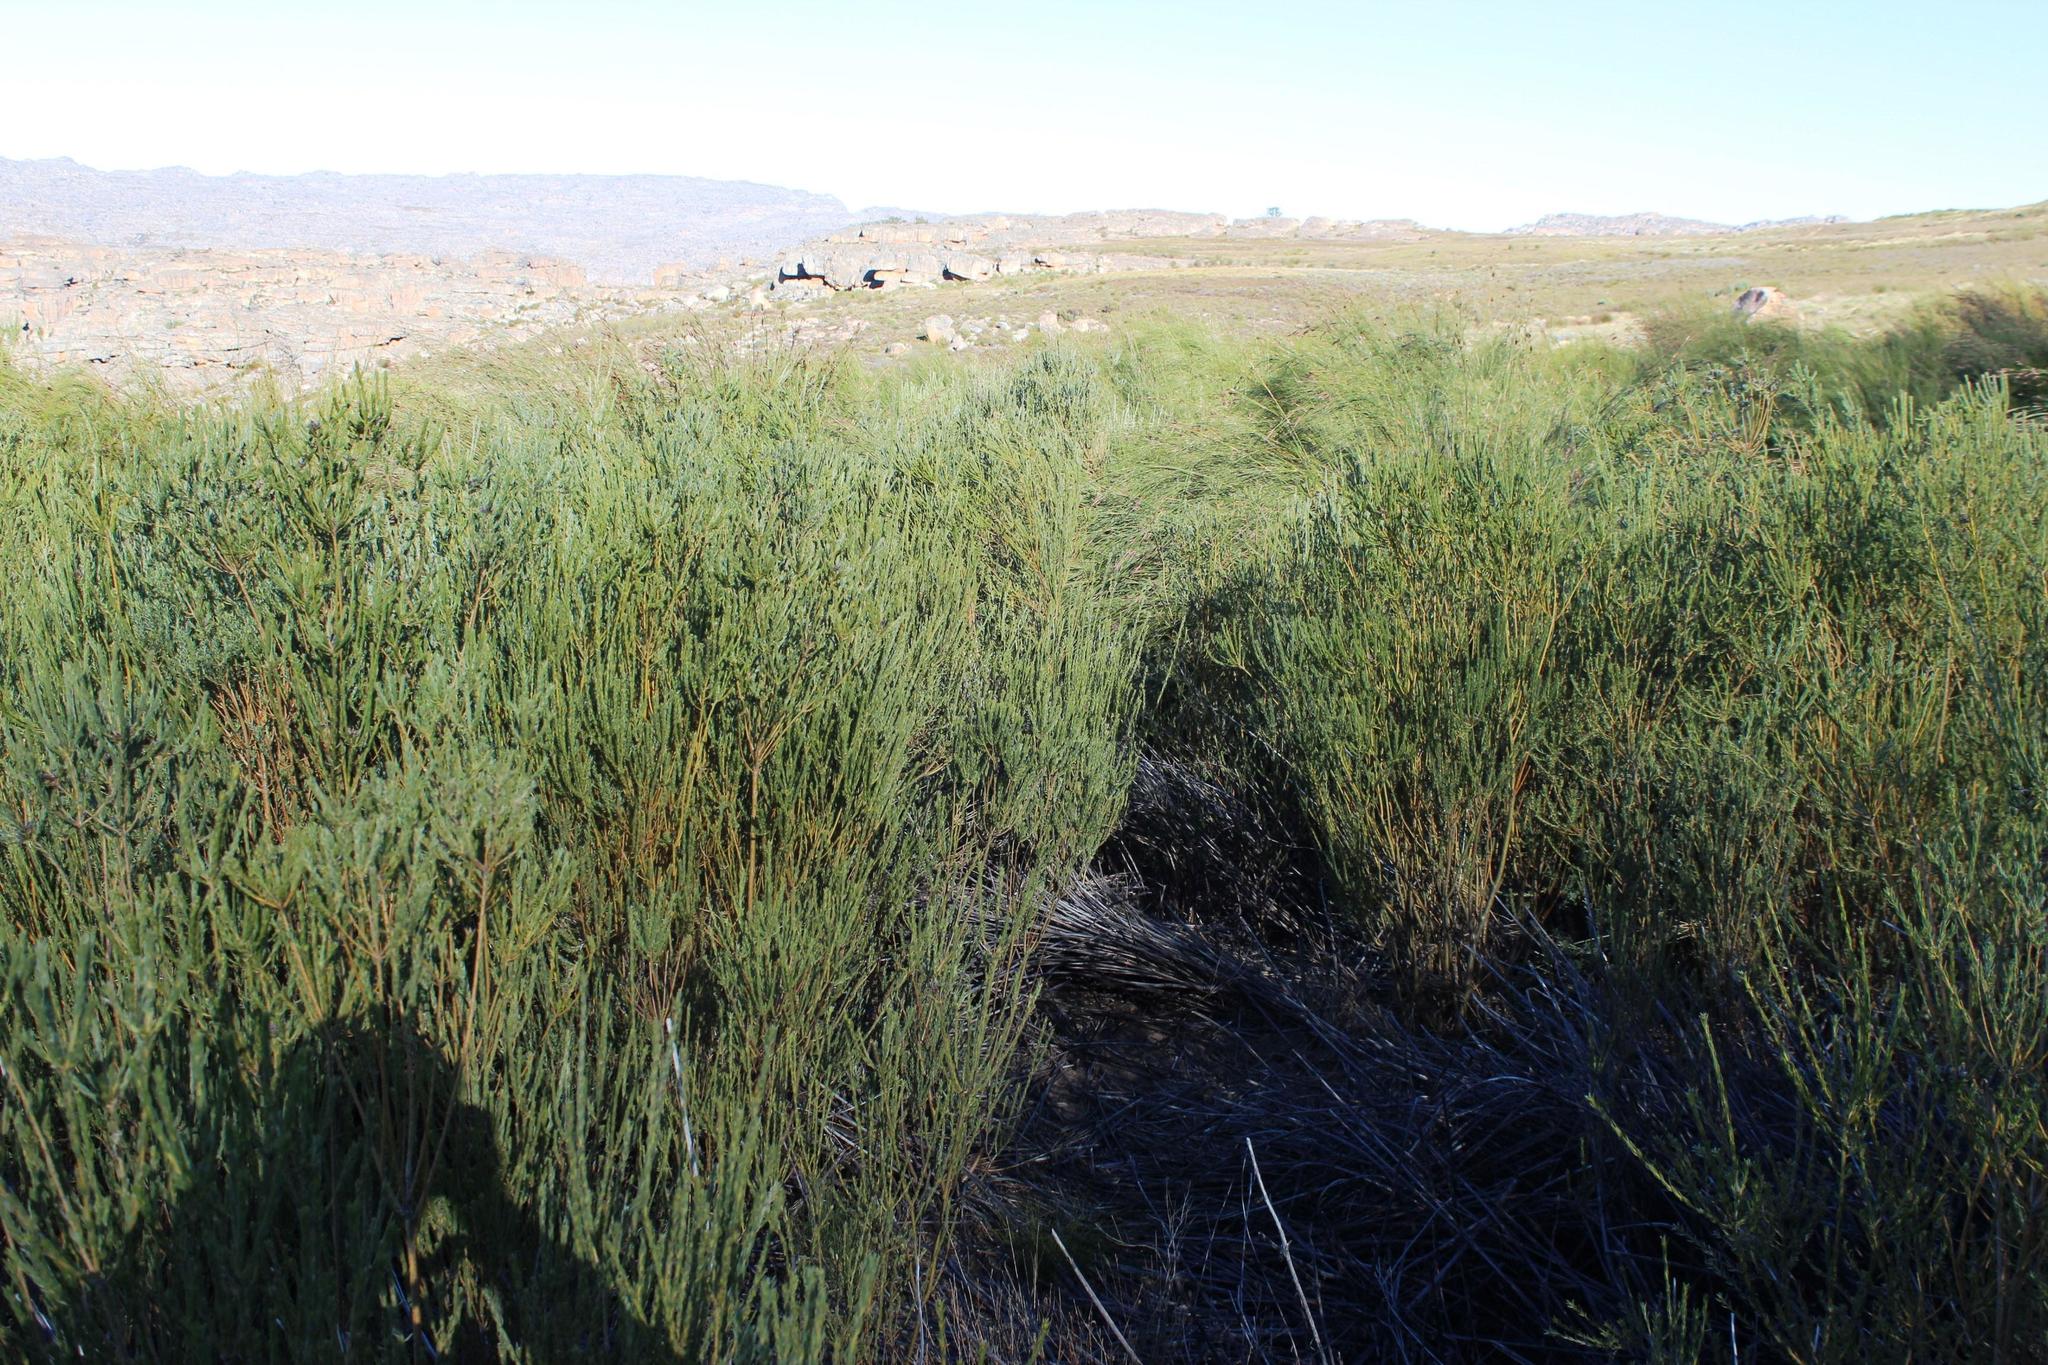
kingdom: Plantae
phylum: Tracheophyta
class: Magnoliopsida
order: Fabales
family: Fabaceae
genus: Liparia
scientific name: Liparia umbellifera
